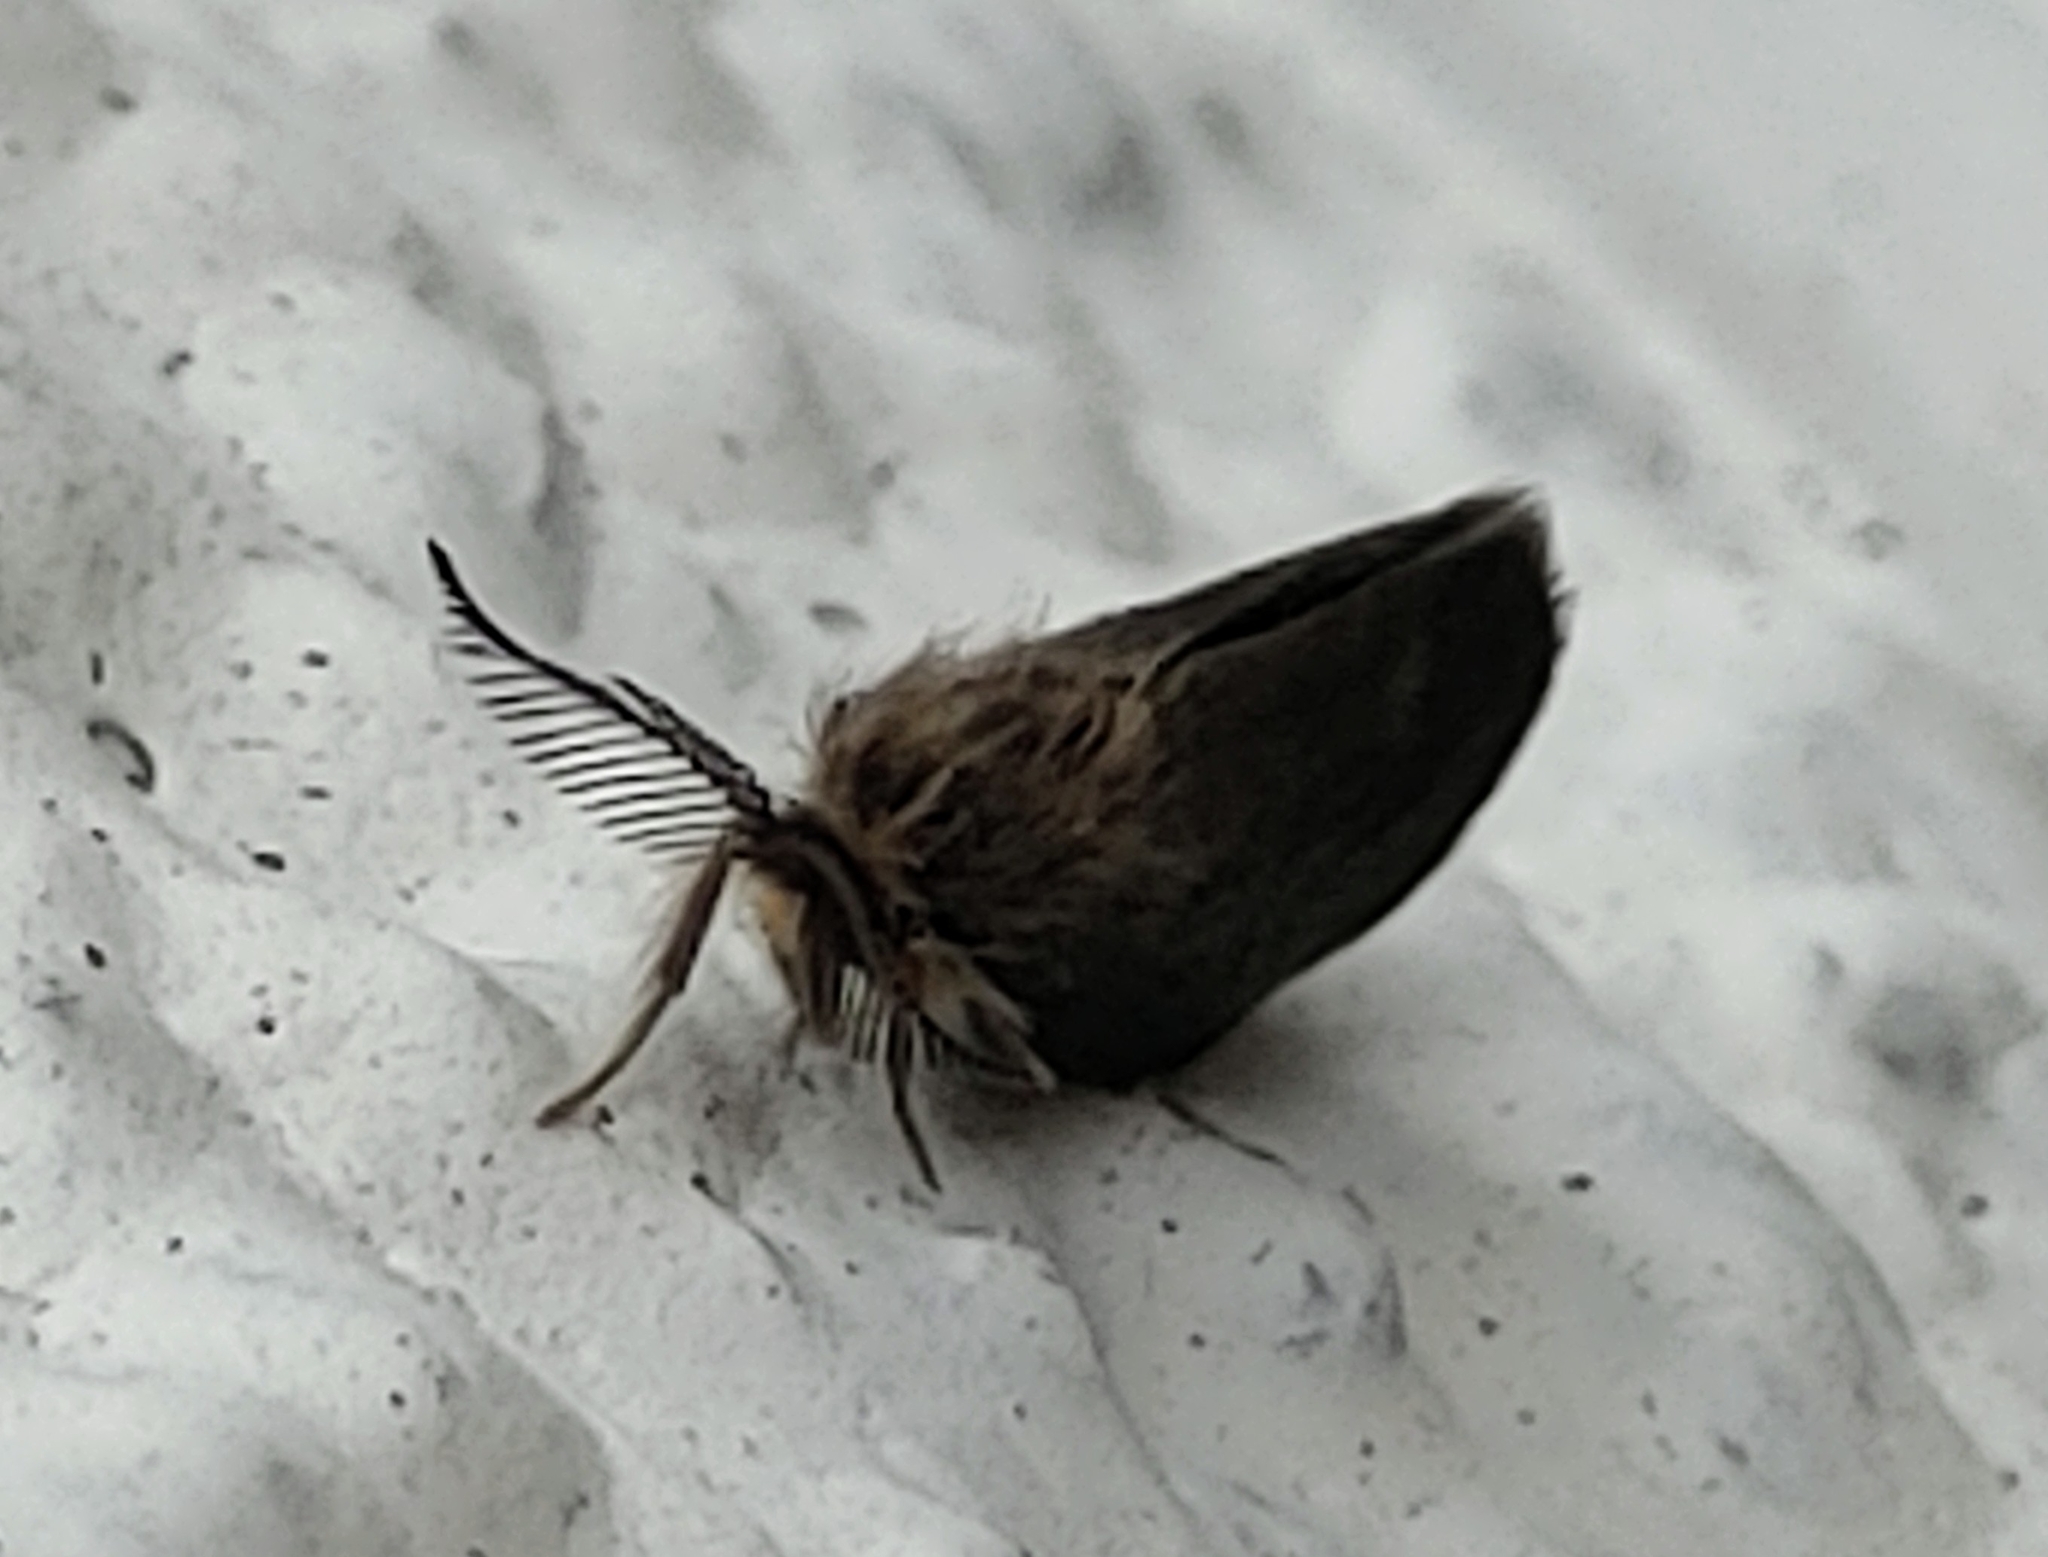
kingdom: Animalia
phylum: Arthropoda
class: Insecta
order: Lepidoptera
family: Psychidae
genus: Cryptothelea
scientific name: Cryptothelea nigrita
